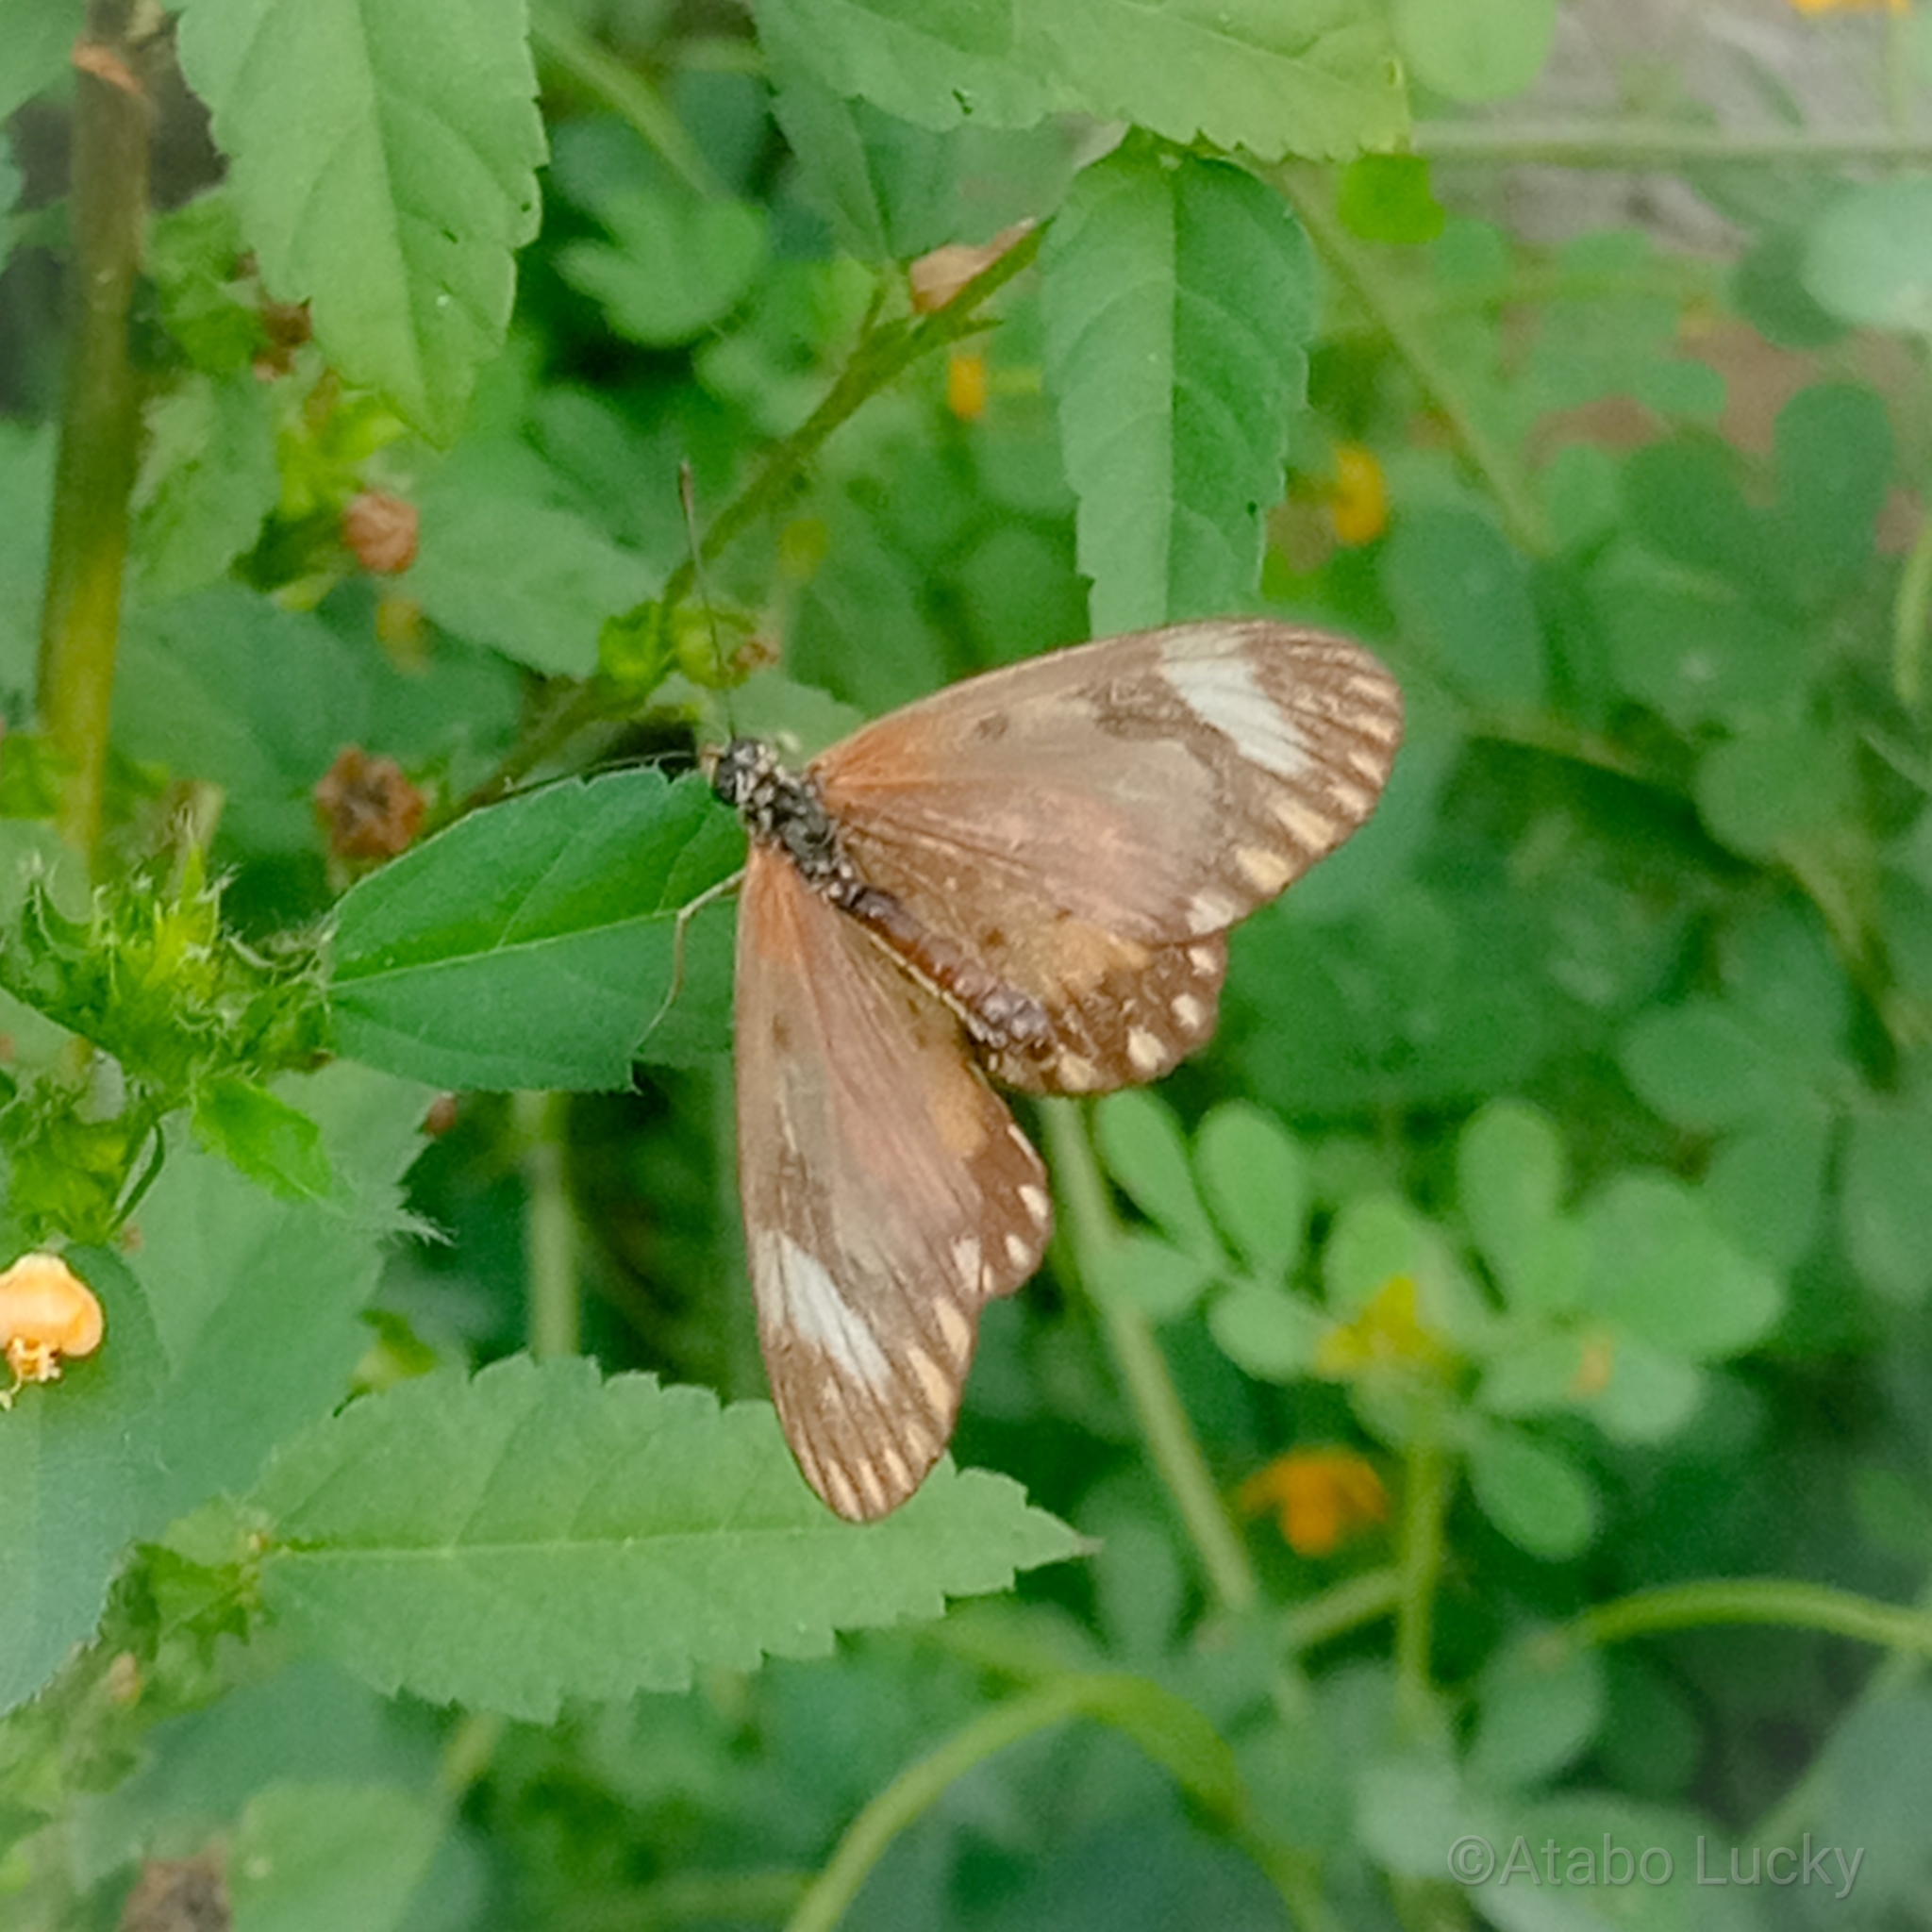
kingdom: Animalia
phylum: Arthropoda
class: Insecta
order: Lepidoptera
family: Nymphalidae
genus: Acraea
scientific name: Acraea Telchinia serena
